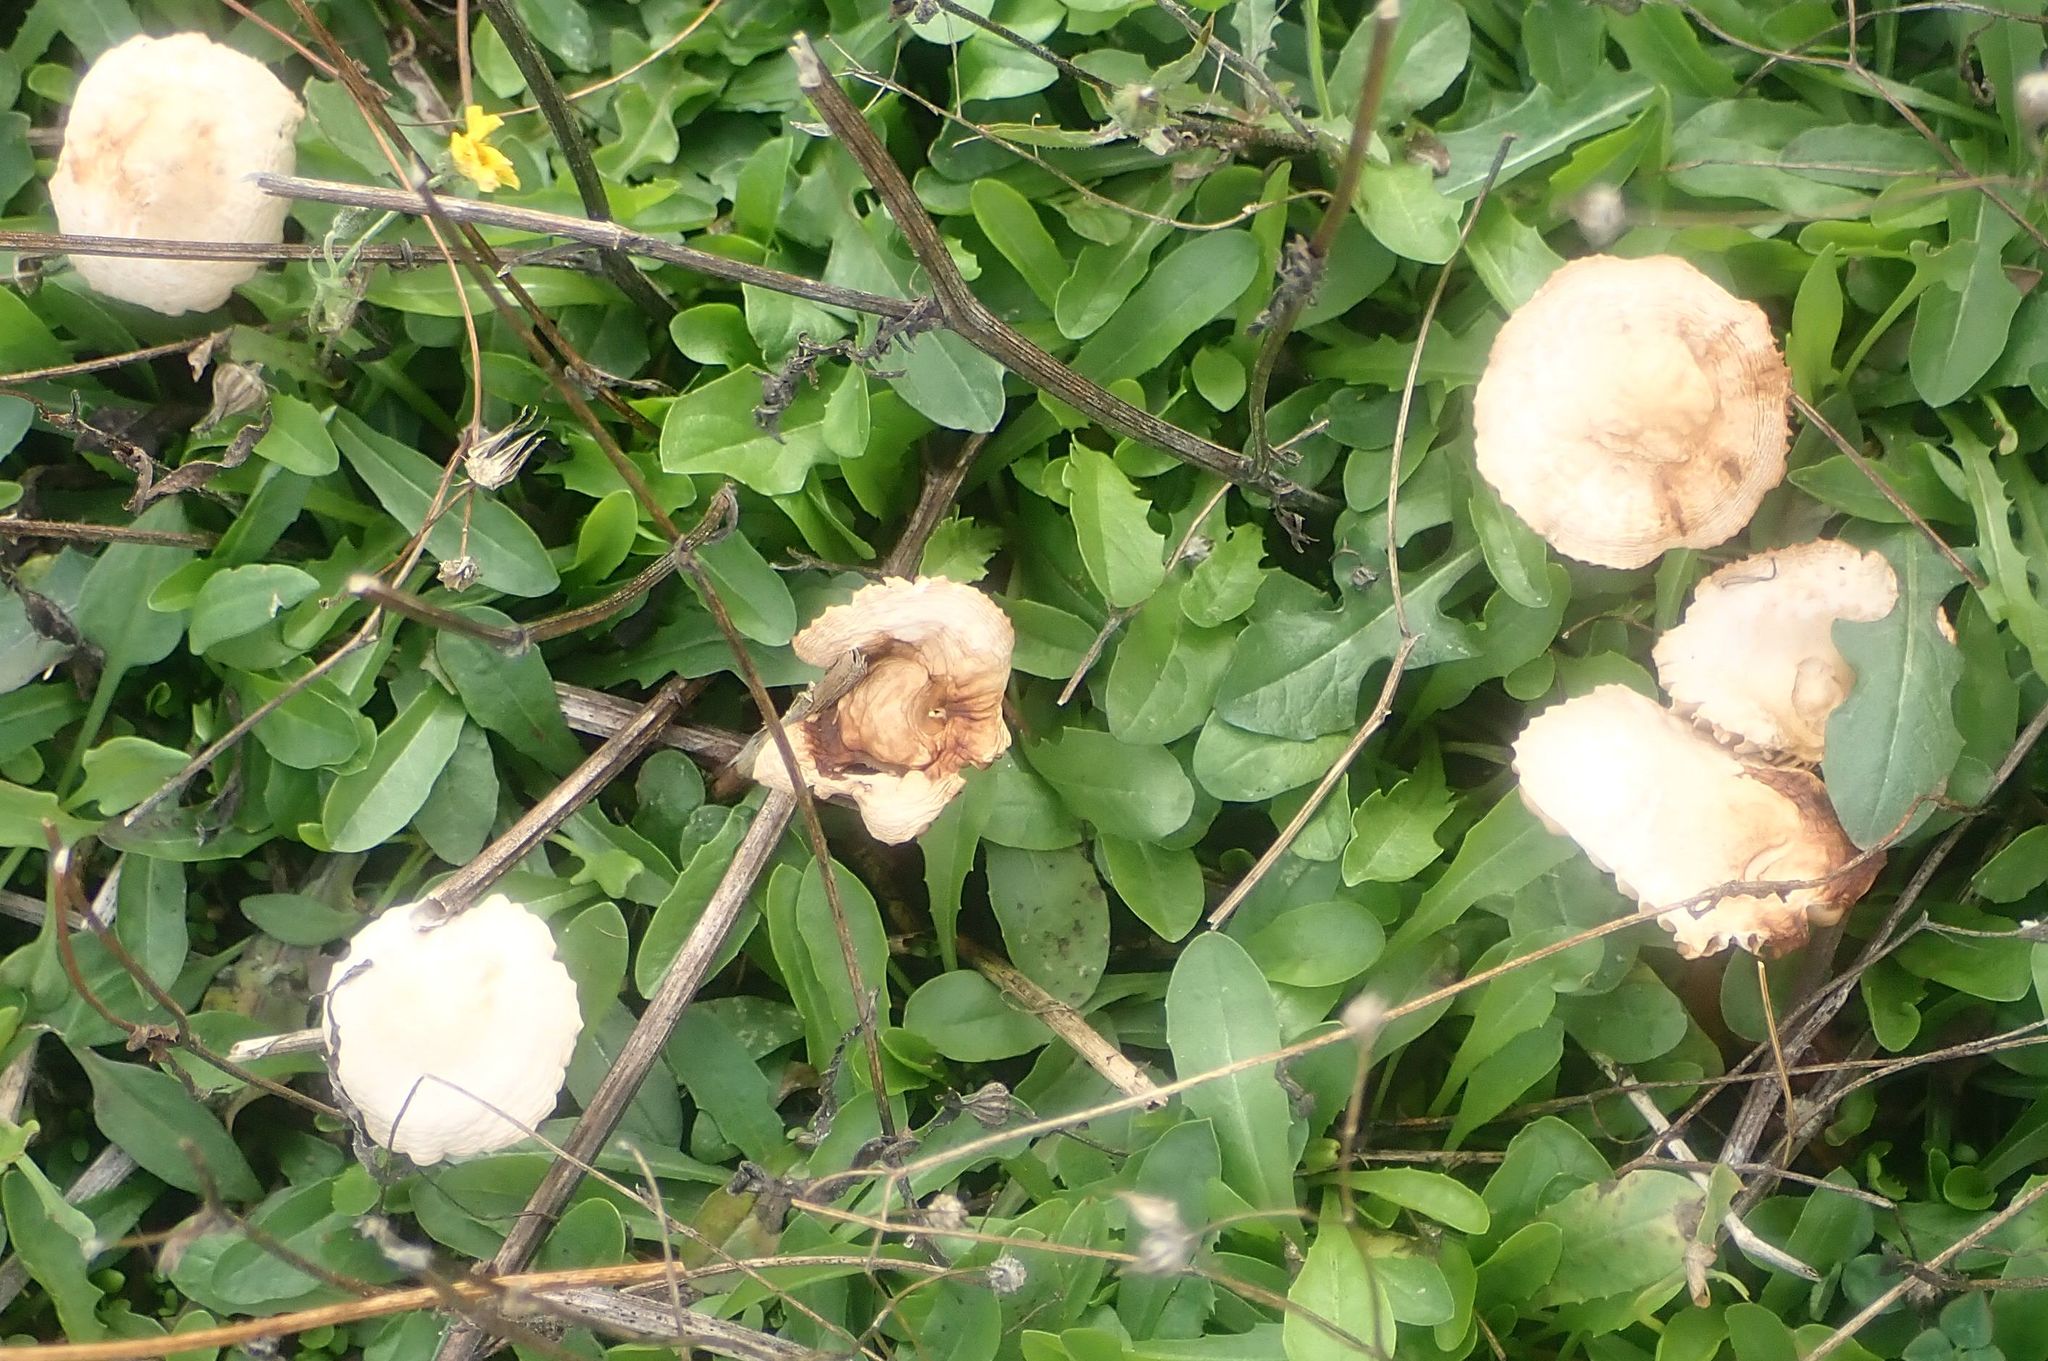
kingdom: Fungi
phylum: Basidiomycota
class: Agaricomycetes
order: Agaricales
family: Marasmiaceae
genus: Marasmius
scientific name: Marasmius oreades
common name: Fairy ring champignon
